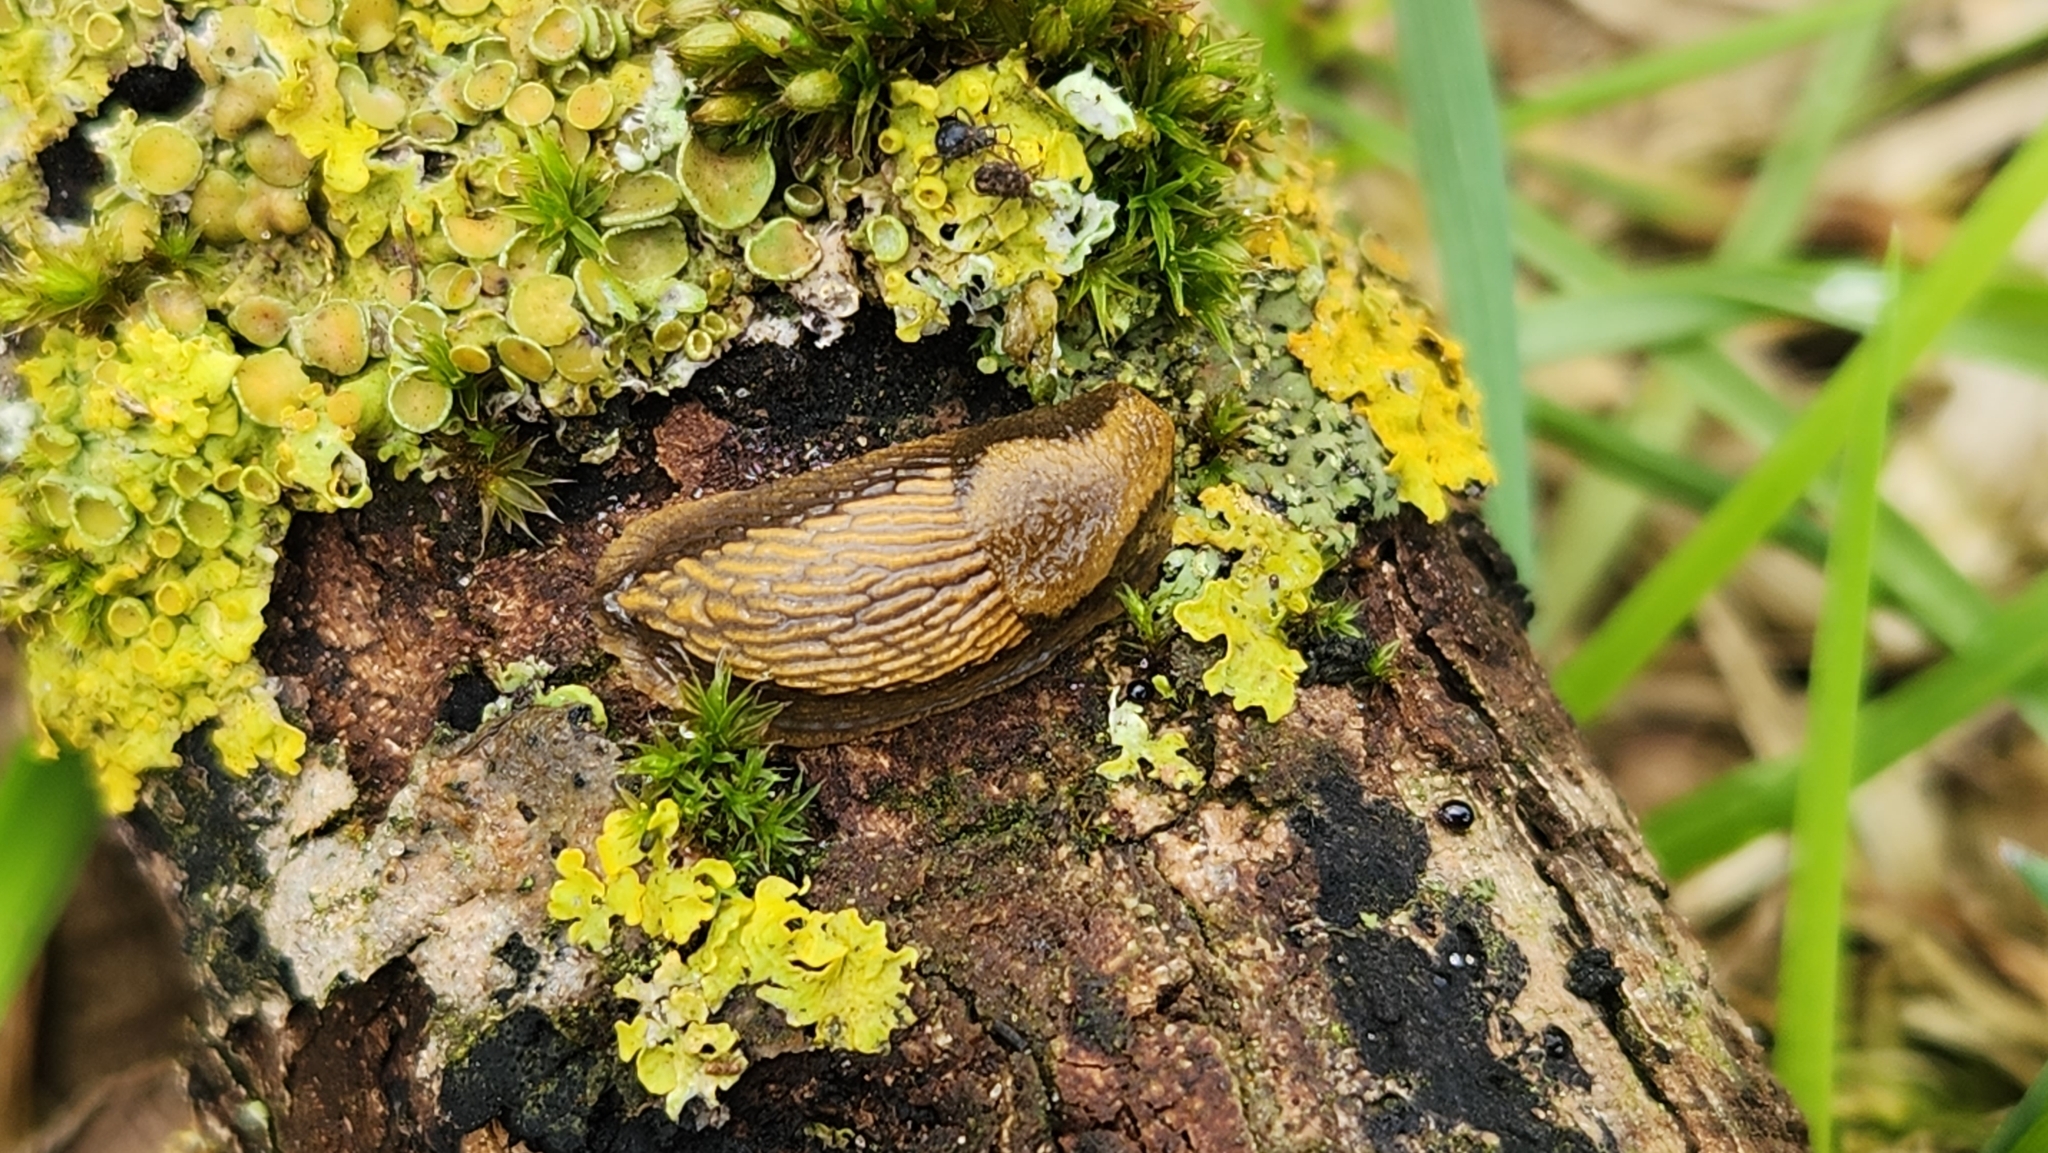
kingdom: Animalia
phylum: Mollusca
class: Gastropoda
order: Stylommatophora
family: Arionidae
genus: Arion
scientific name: Arion vulgaris
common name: Lusitanian slug
